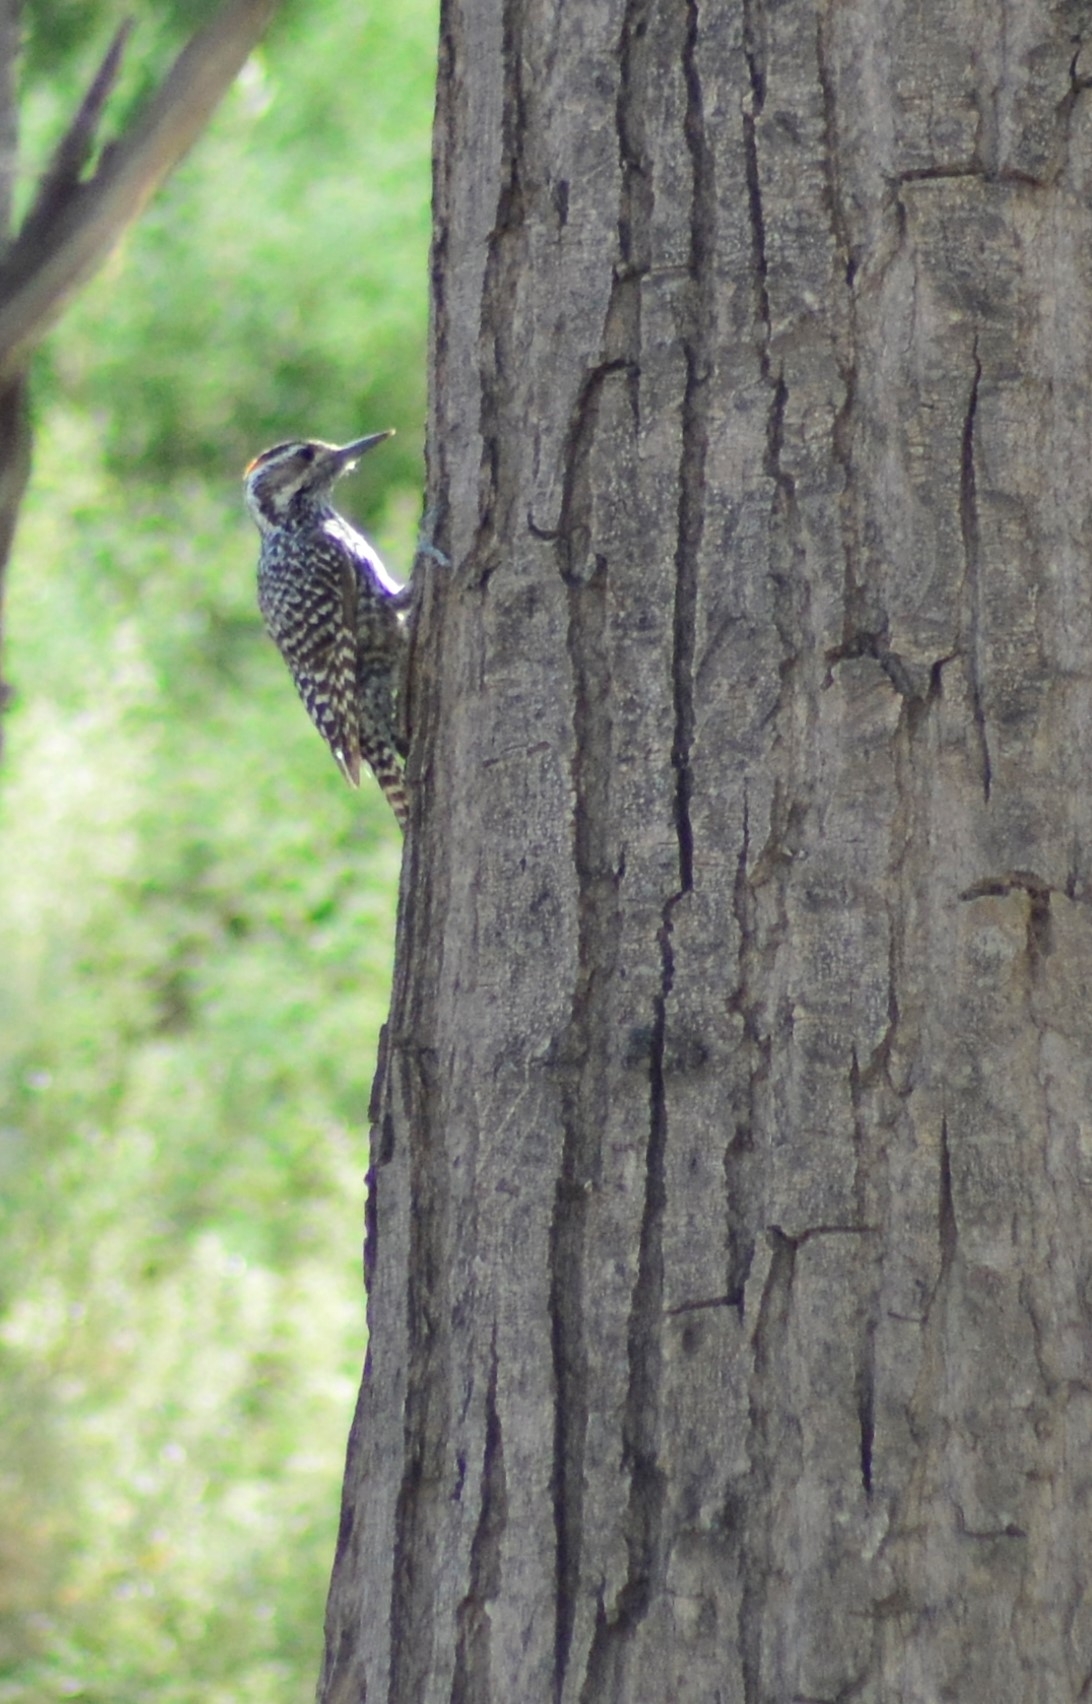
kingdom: Animalia
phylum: Chordata
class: Aves
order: Piciformes
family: Picidae
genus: Veniliornis
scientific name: Veniliornis mixtus
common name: Checkered woodpecker
